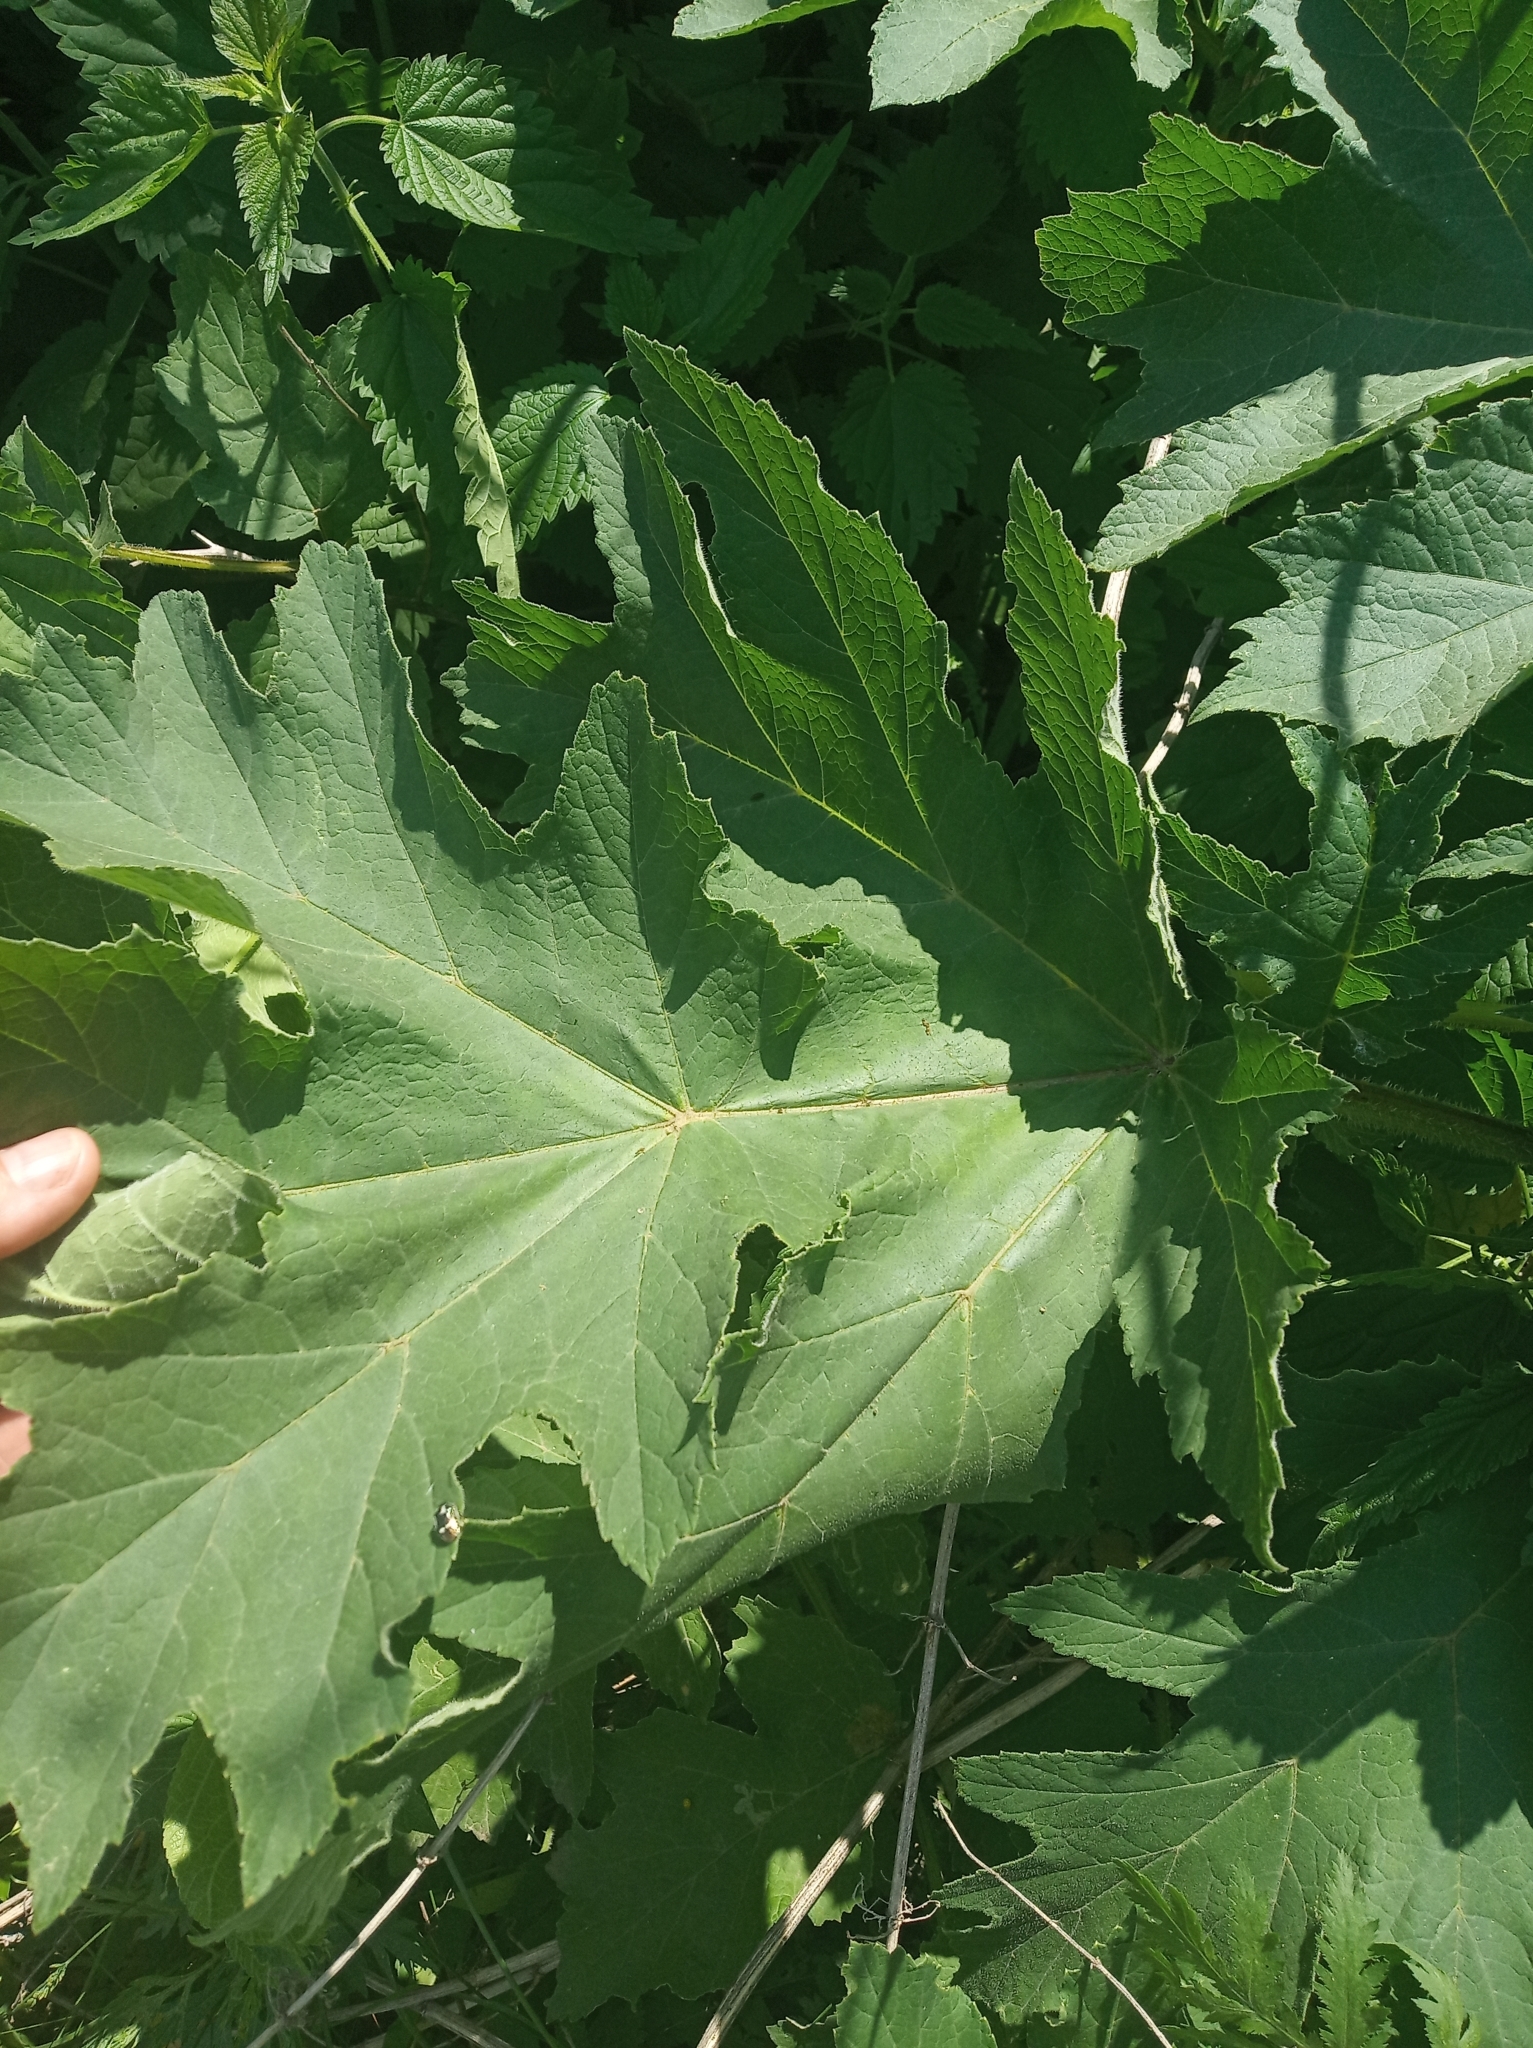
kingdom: Plantae
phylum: Tracheophyta
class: Magnoliopsida
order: Apiales
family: Apiaceae
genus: Heracleum
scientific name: Heracleum sphondylium
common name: Hogweed
